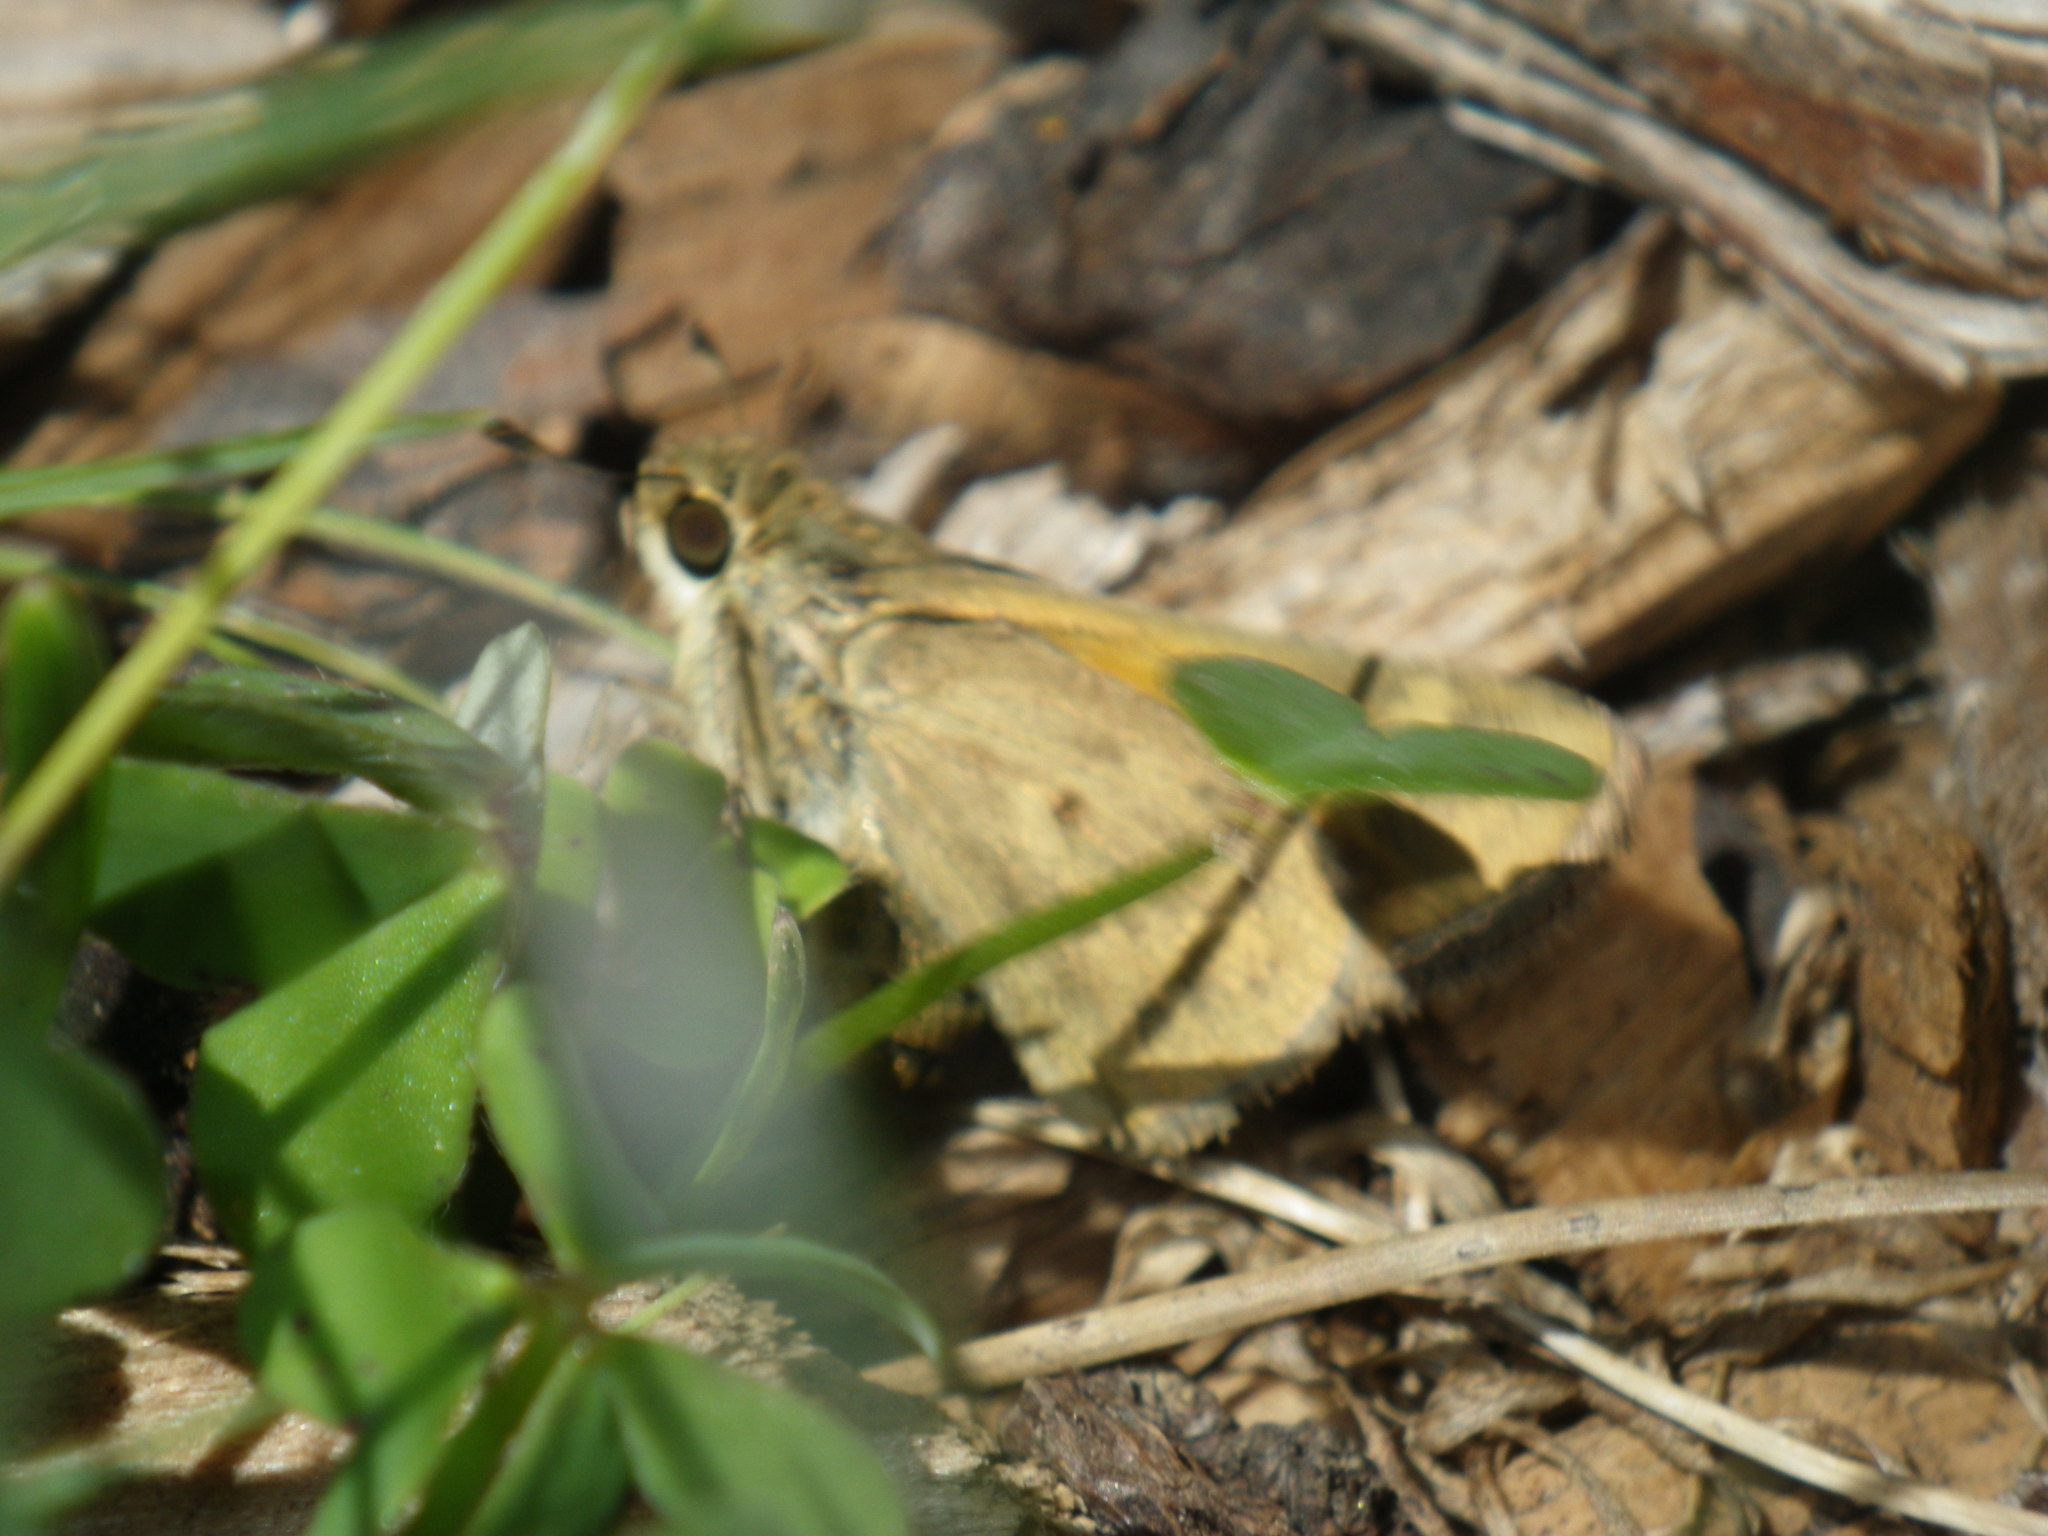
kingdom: Animalia
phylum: Arthropoda
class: Insecta
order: Lepidoptera
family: Hesperiidae
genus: Hylephila
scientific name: Hylephila phyleus
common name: Fiery skipper
